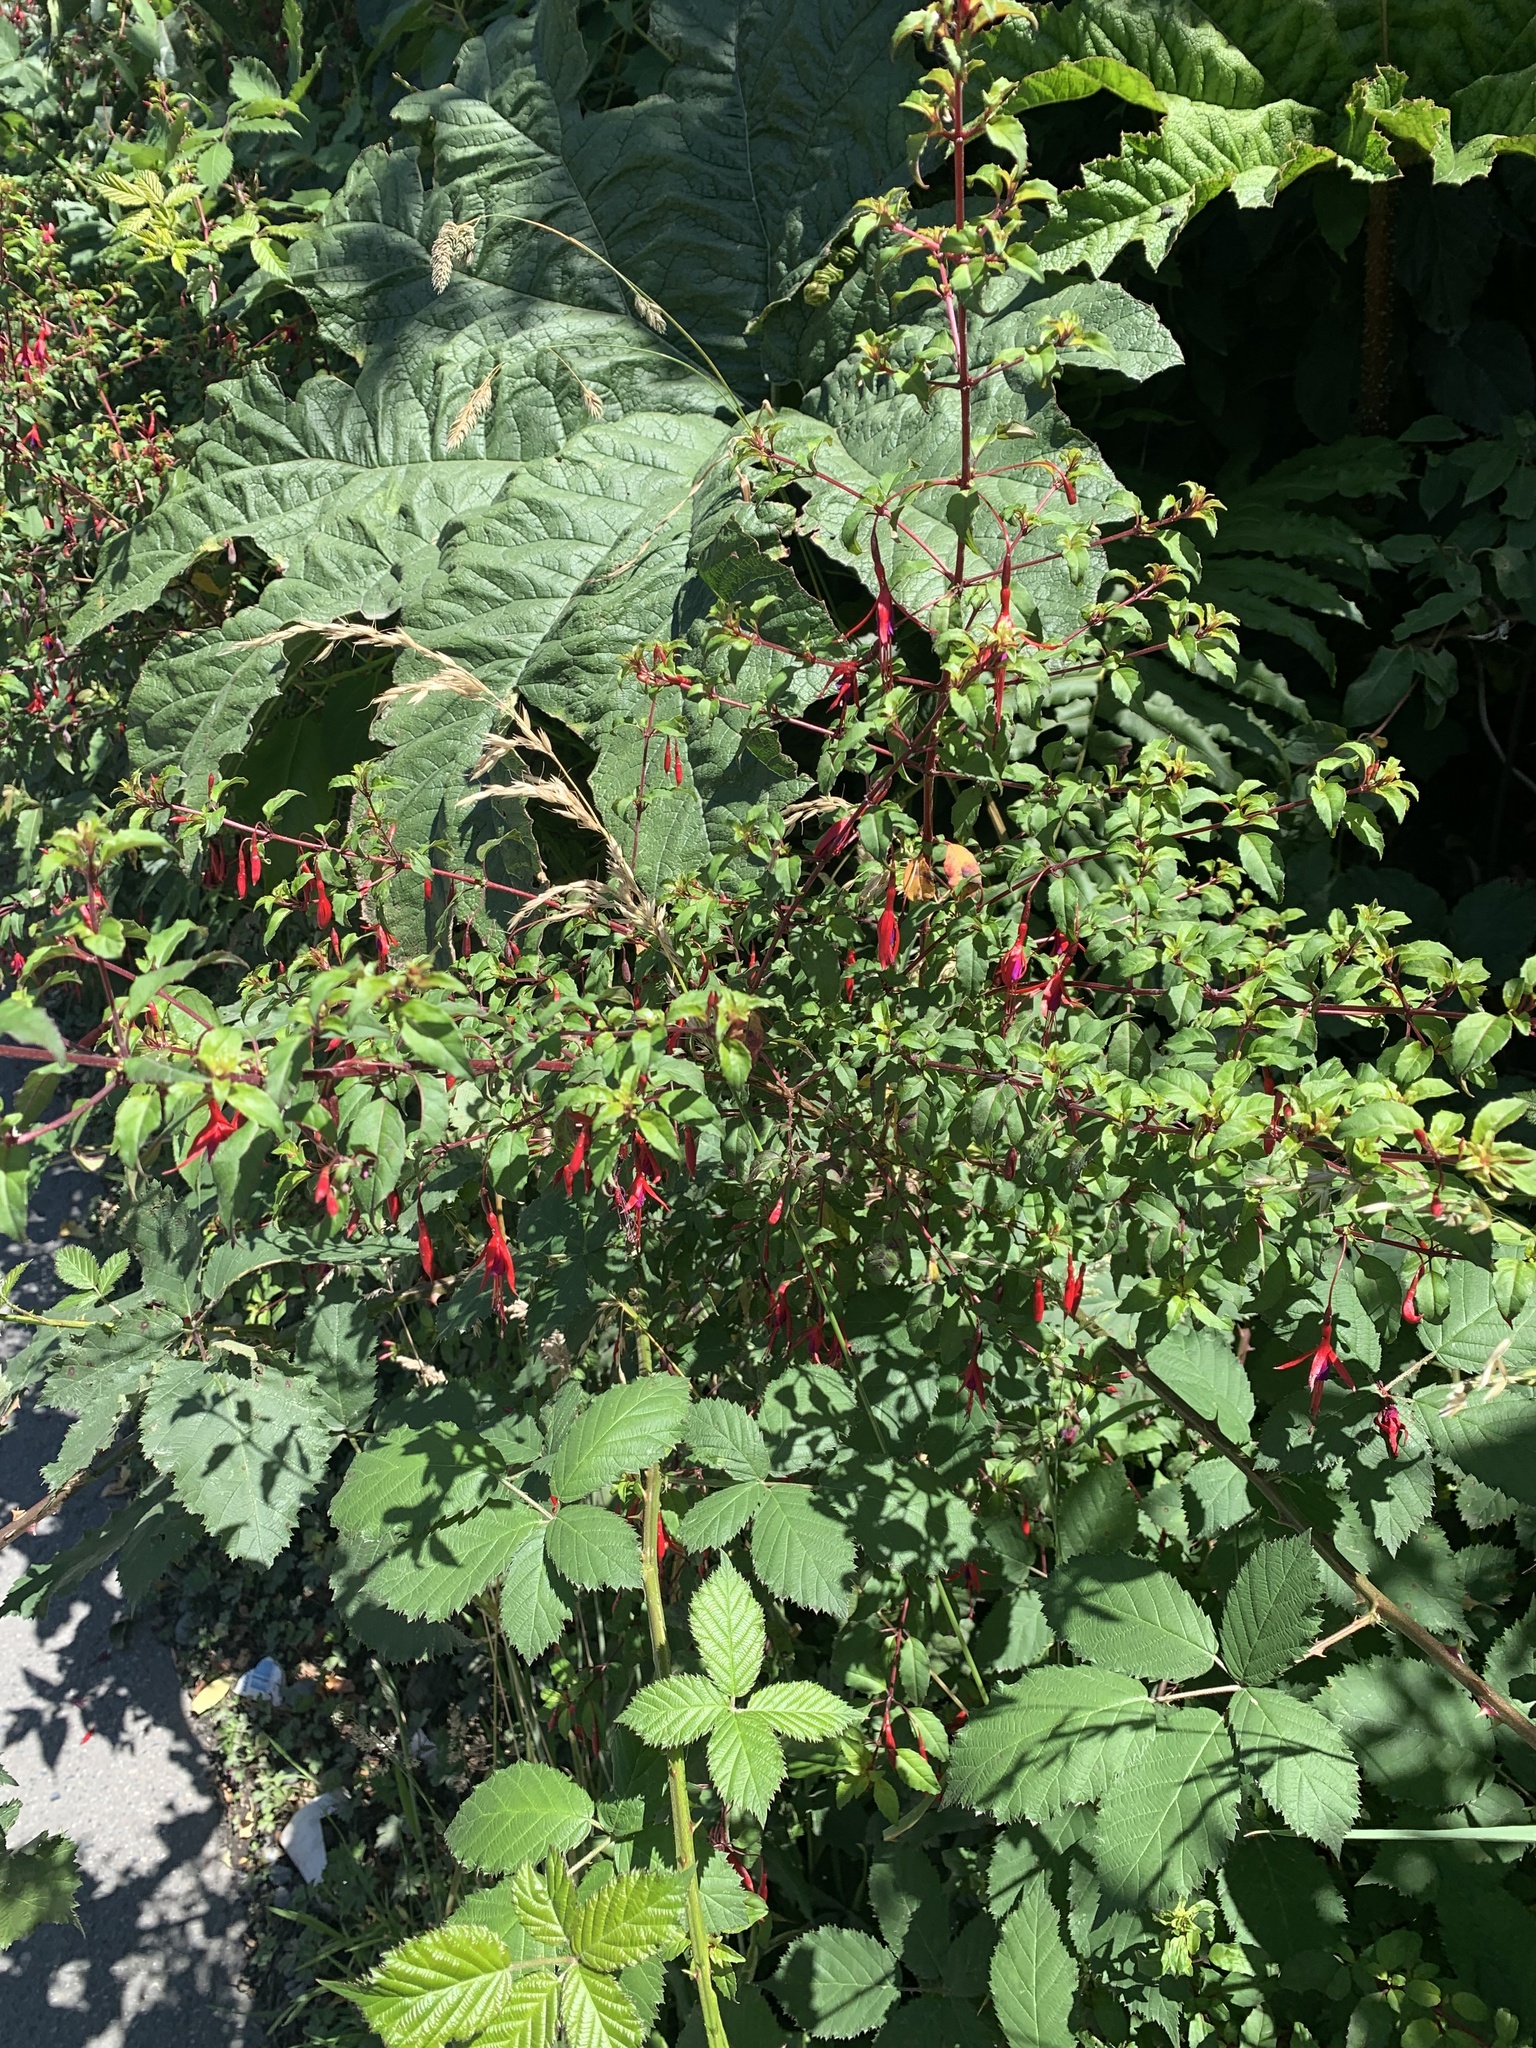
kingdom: Plantae
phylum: Tracheophyta
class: Magnoliopsida
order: Myrtales
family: Onagraceae
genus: Fuchsia
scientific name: Fuchsia magellanica
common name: Hardy fuchsia
